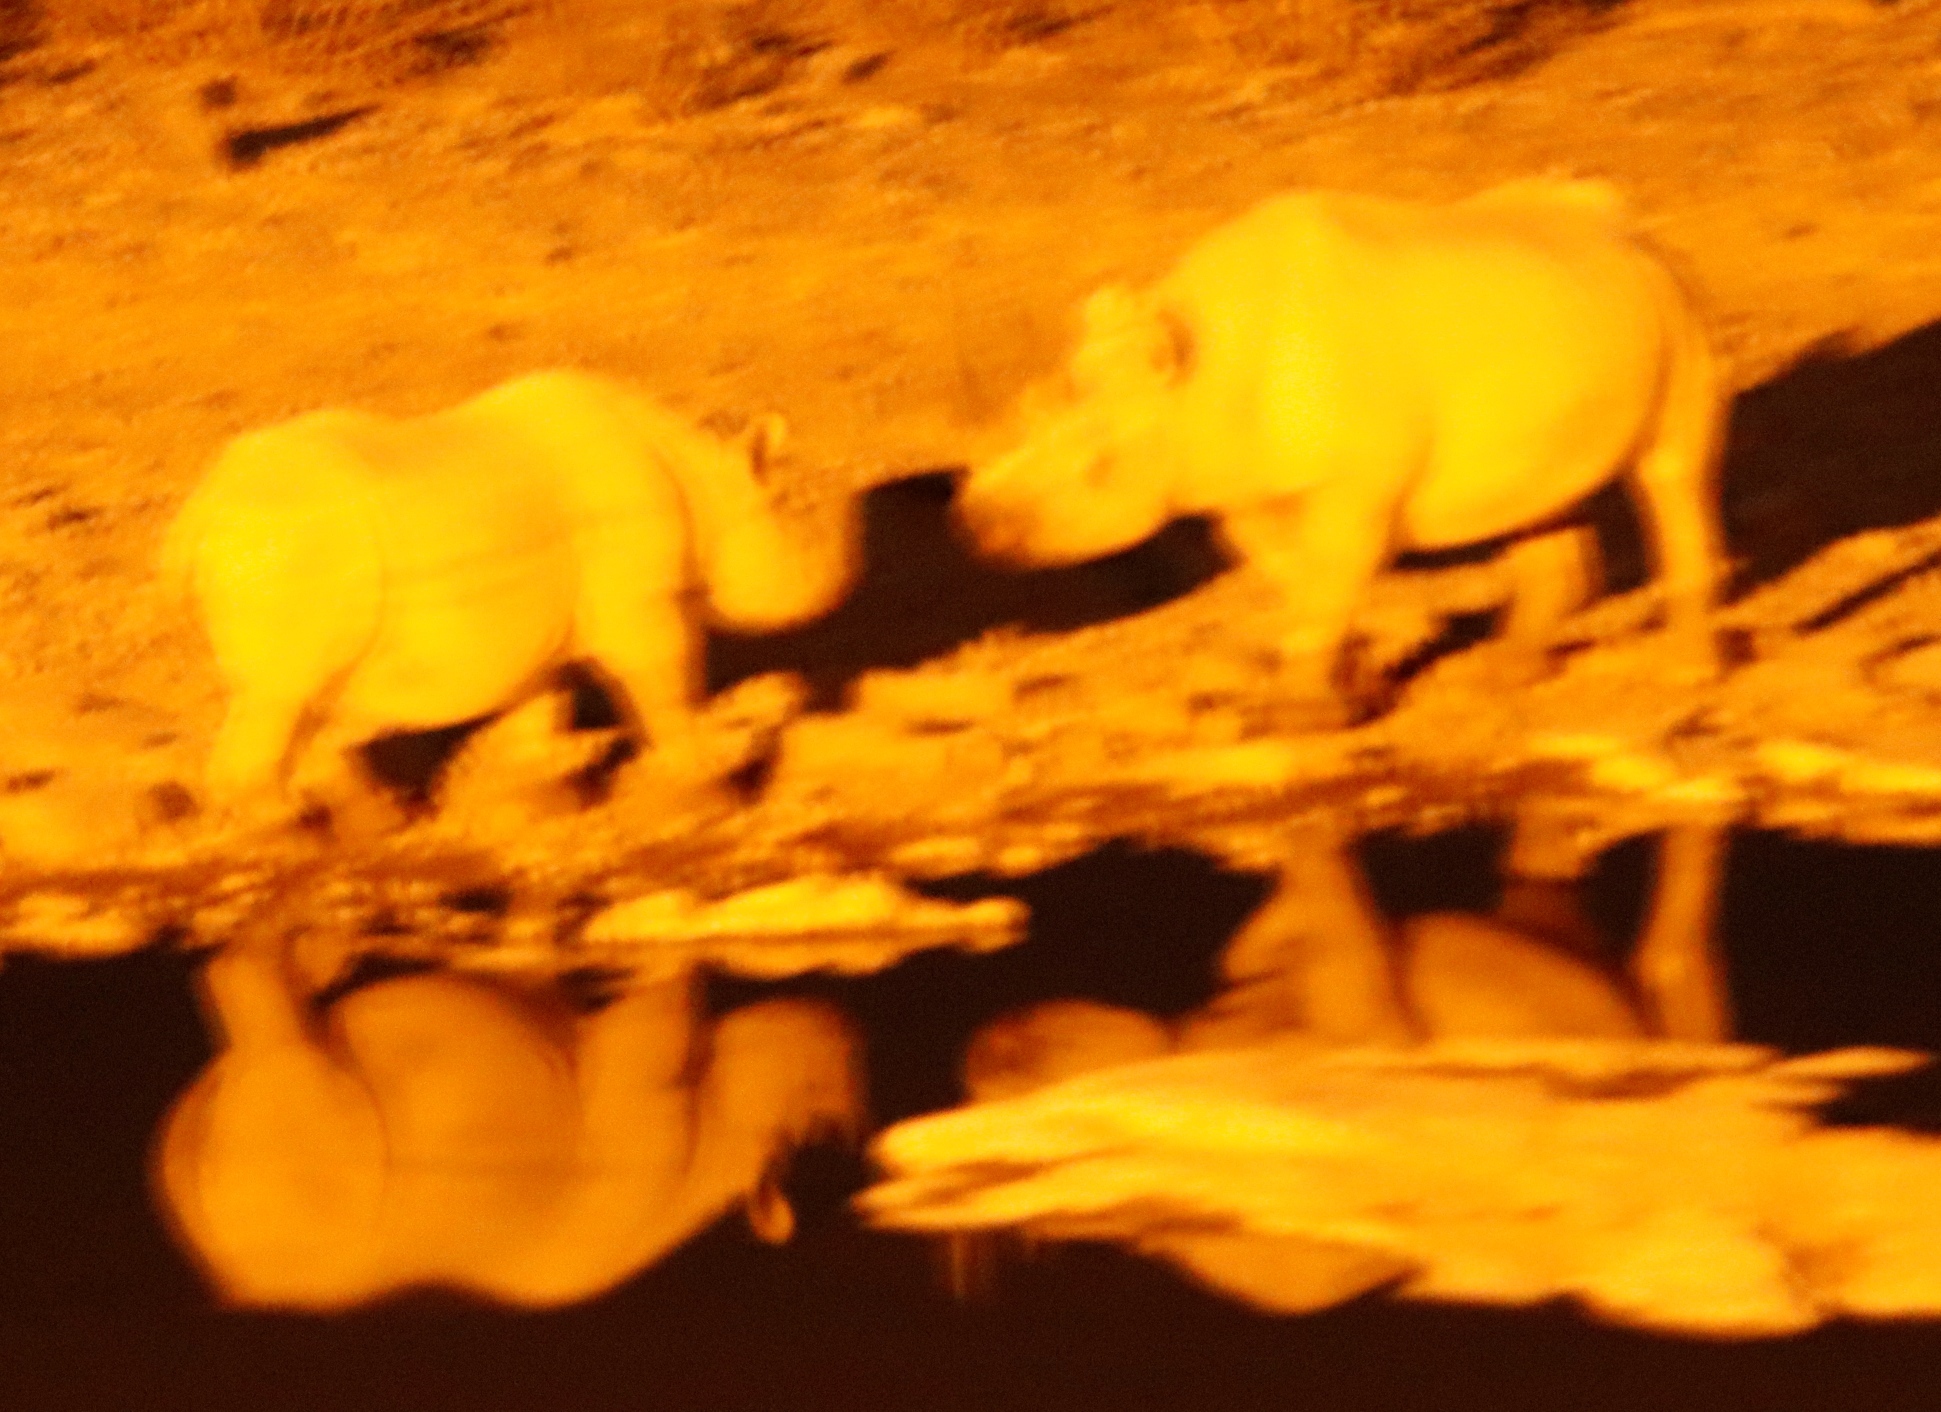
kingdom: Animalia
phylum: Chordata
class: Mammalia
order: Perissodactyla
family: Rhinocerotidae
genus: Diceros
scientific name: Diceros bicornis
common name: Black rhinoceros
